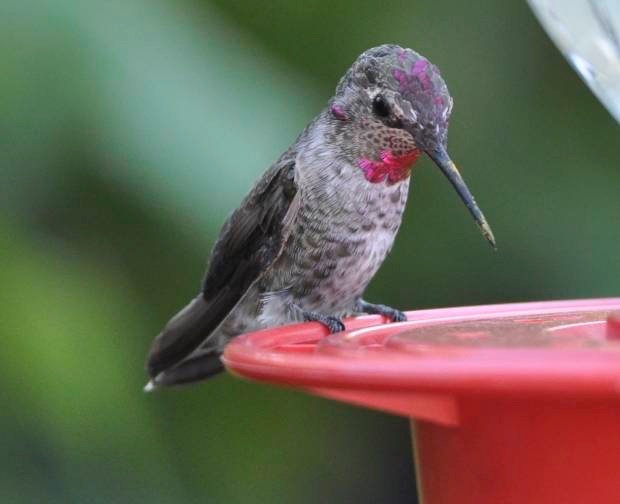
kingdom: Animalia
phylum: Chordata
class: Aves
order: Apodiformes
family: Trochilidae
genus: Calypte
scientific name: Calypte anna
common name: Anna's hummingbird
